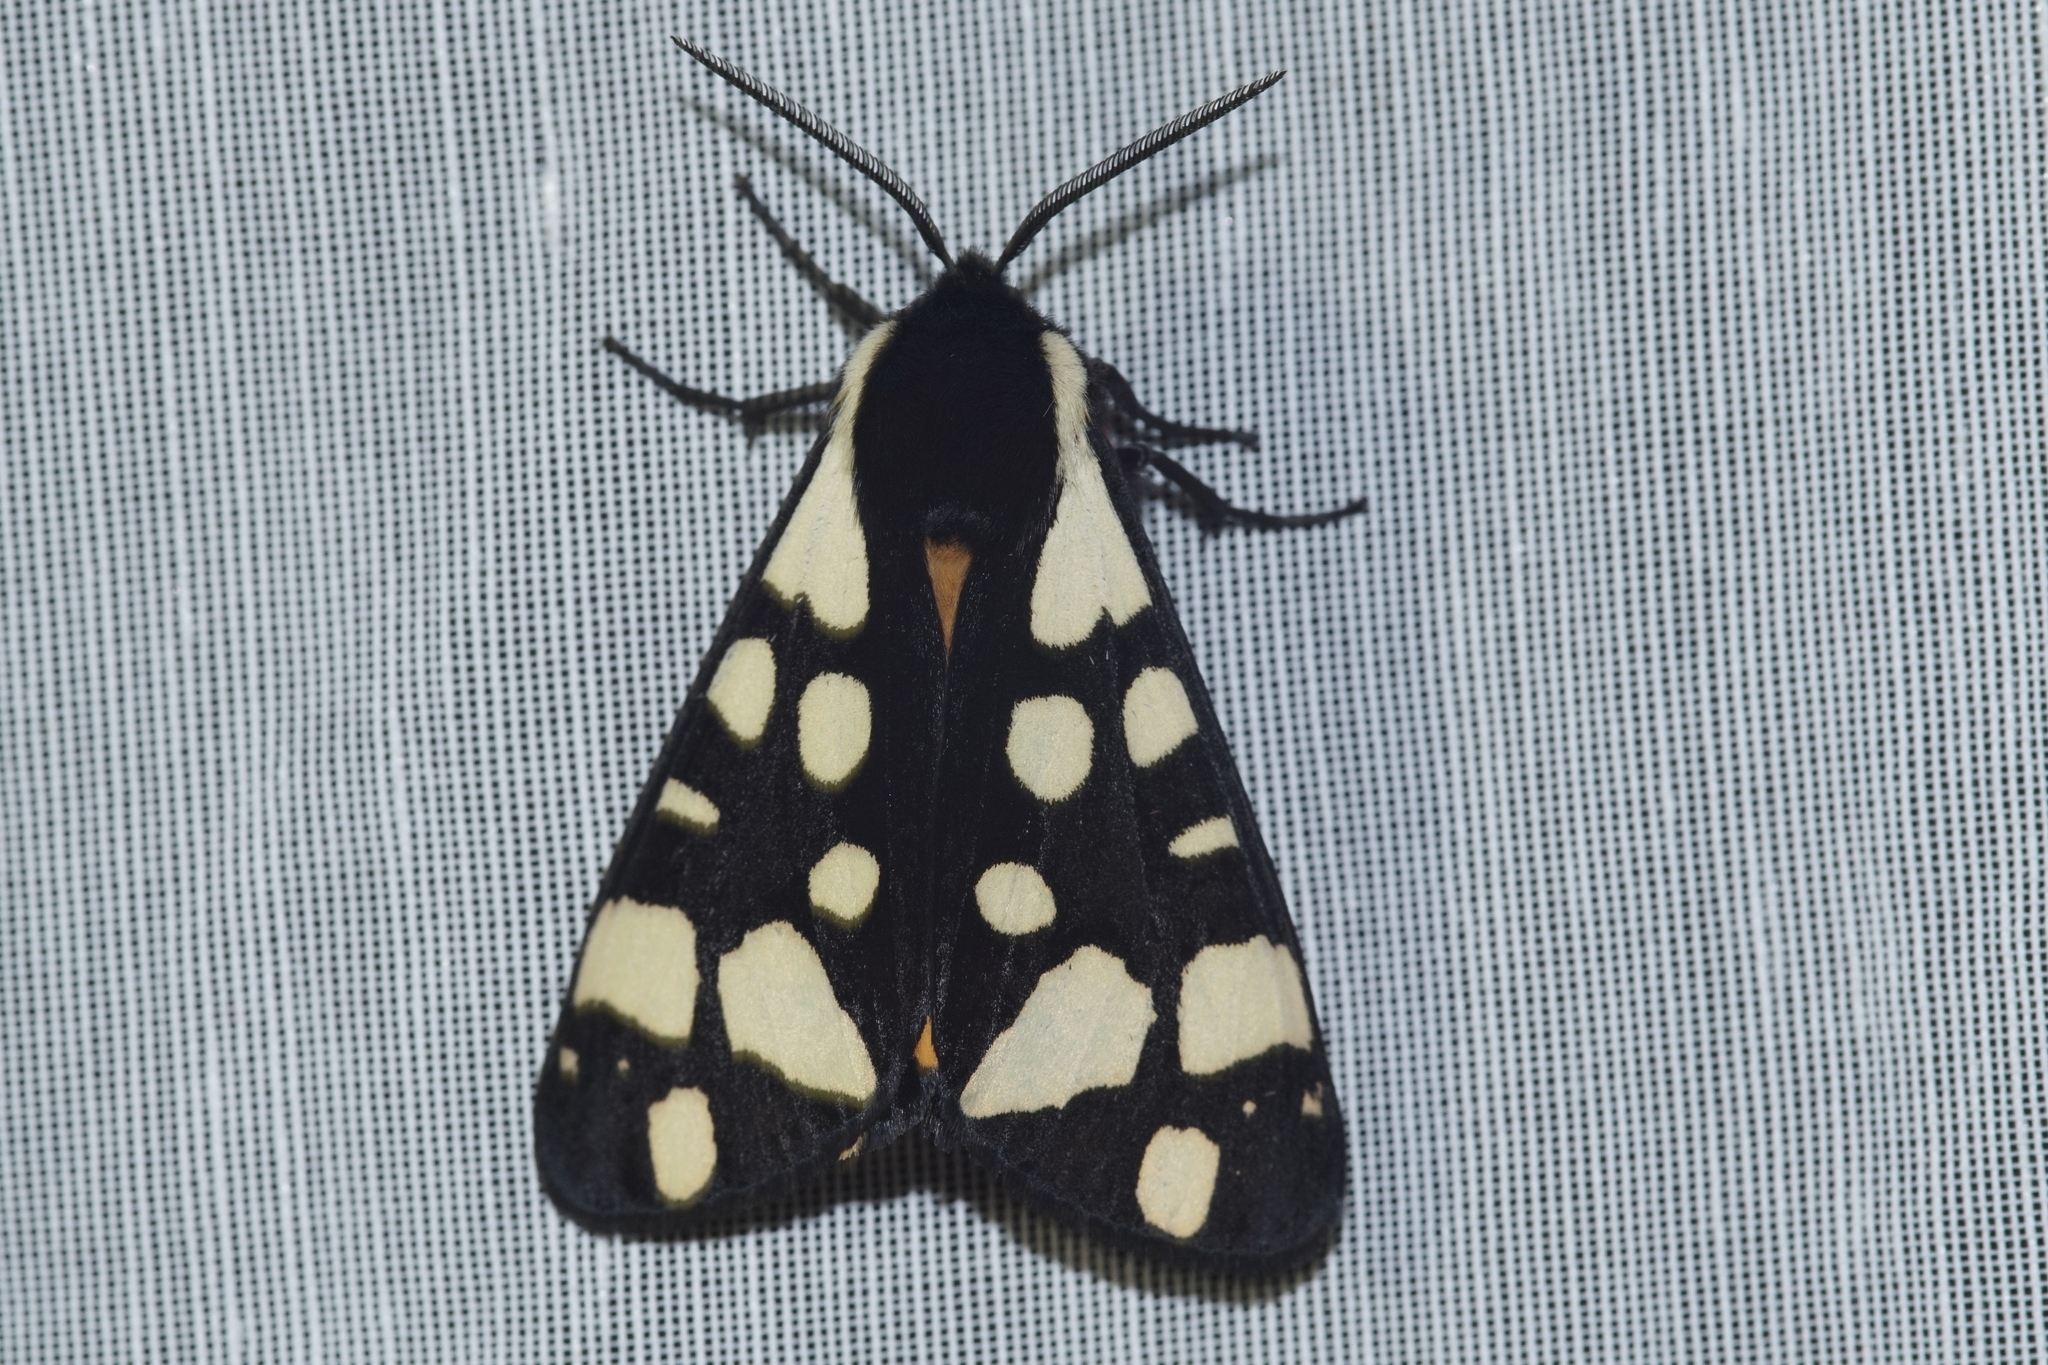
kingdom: Animalia
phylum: Arthropoda
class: Insecta
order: Lepidoptera
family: Erebidae
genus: Epicallia
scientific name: Epicallia villica
